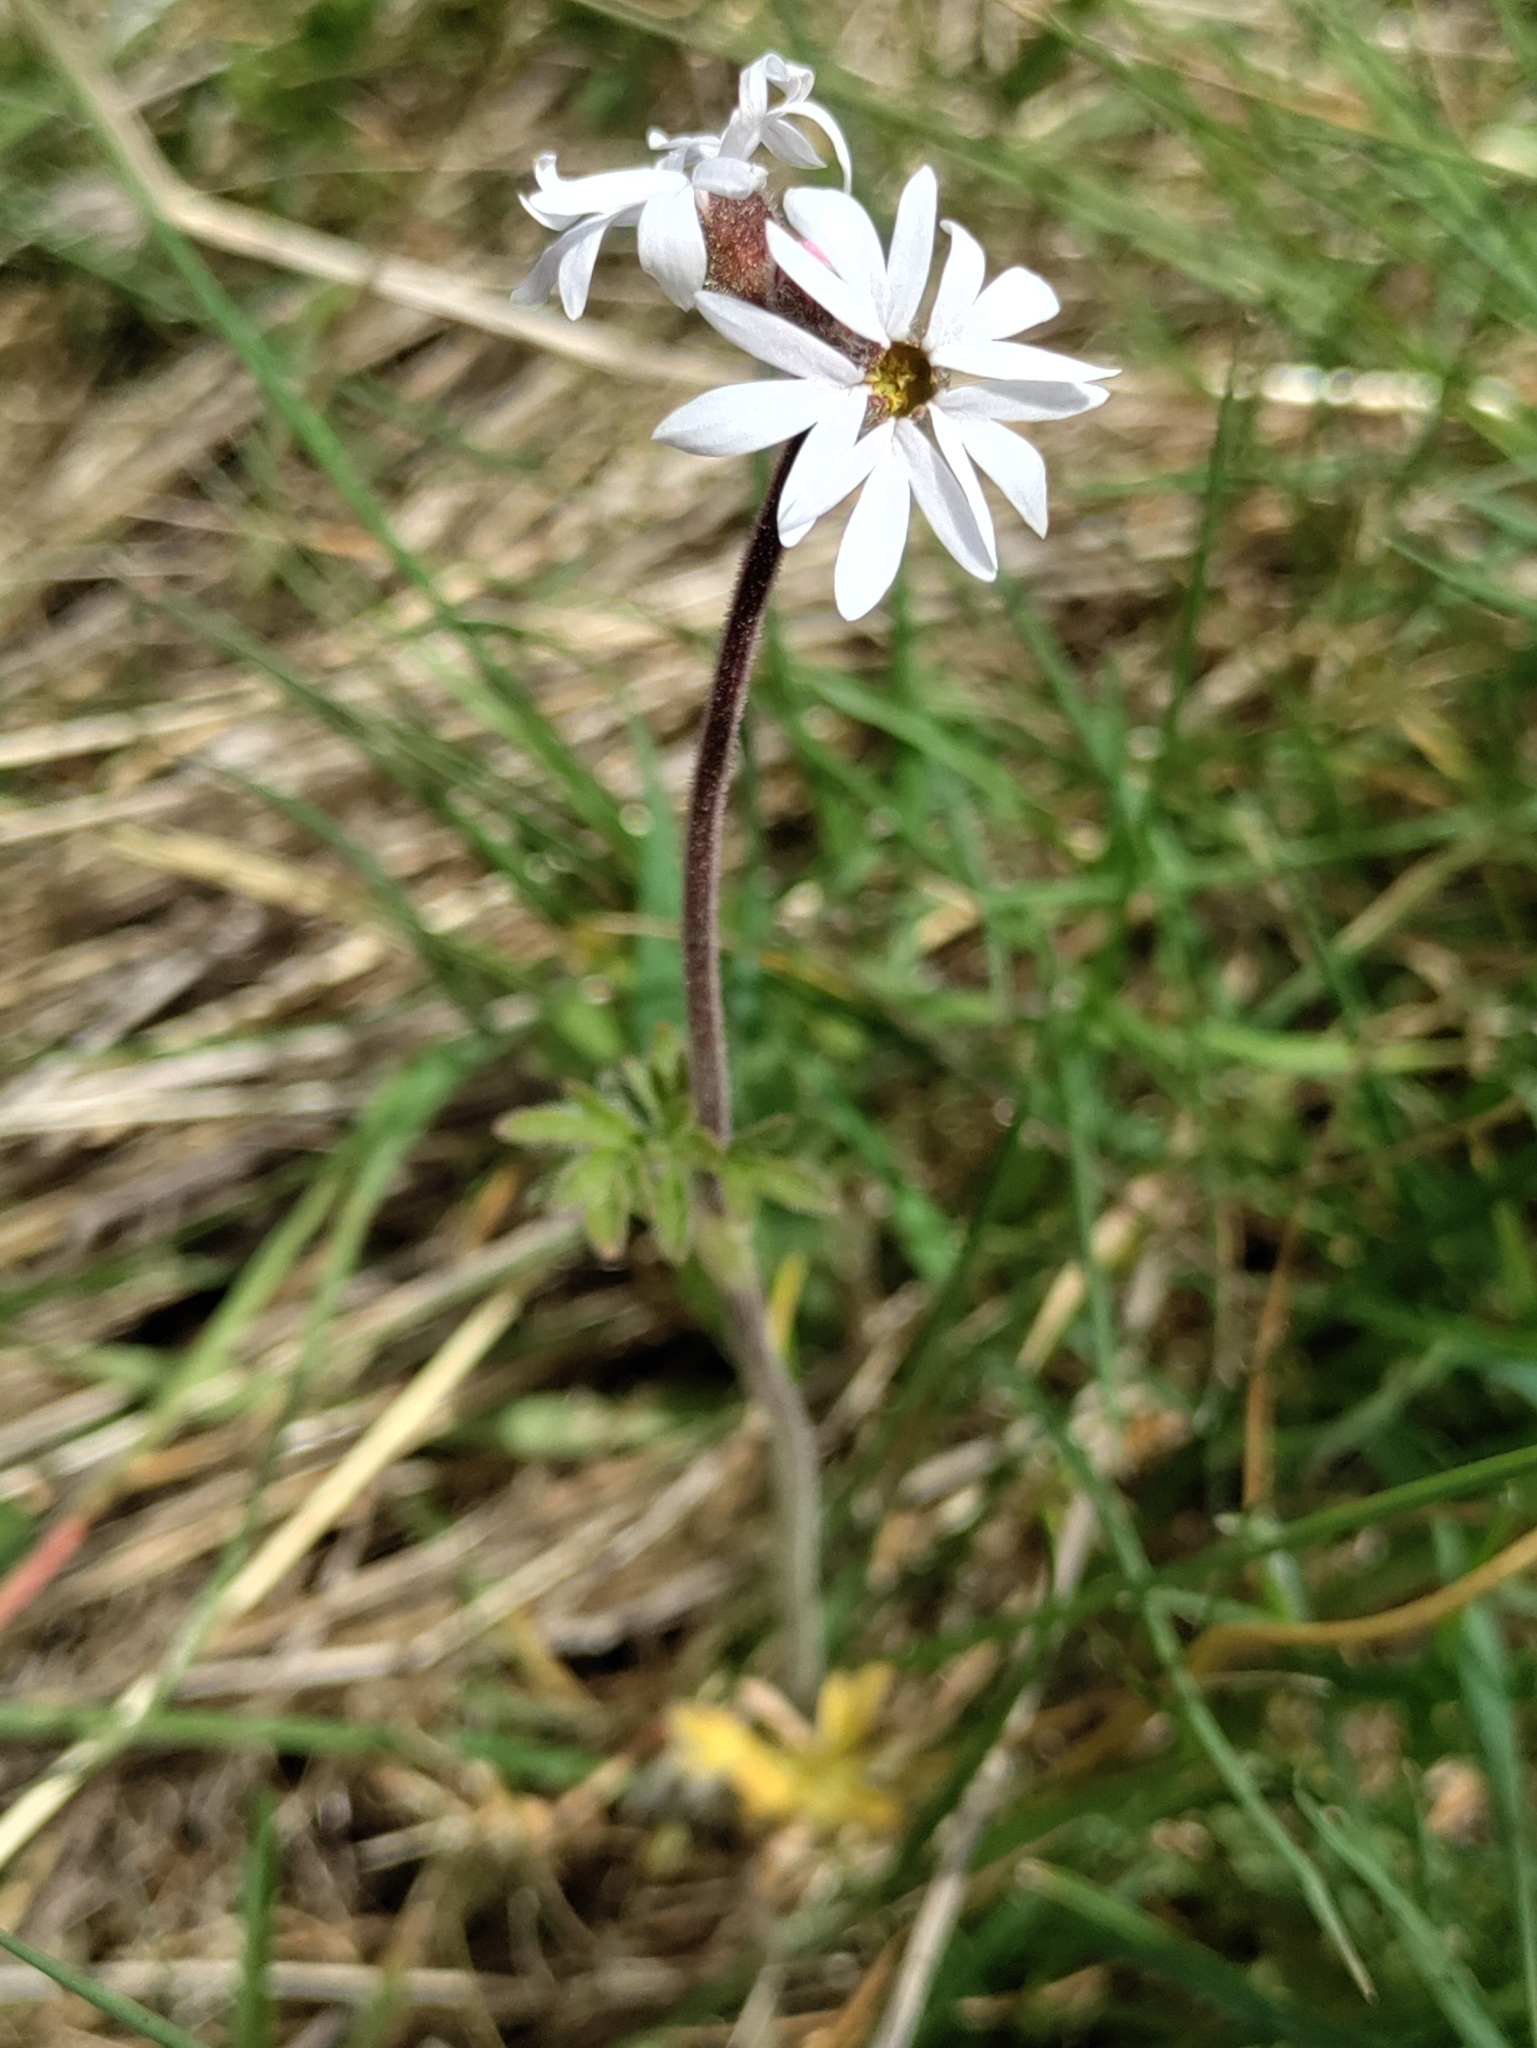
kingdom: Plantae
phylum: Tracheophyta
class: Magnoliopsida
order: Saxifragales
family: Saxifragaceae
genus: Lithophragma
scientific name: Lithophragma parviflorum
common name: Small-flowered fringe-cup
